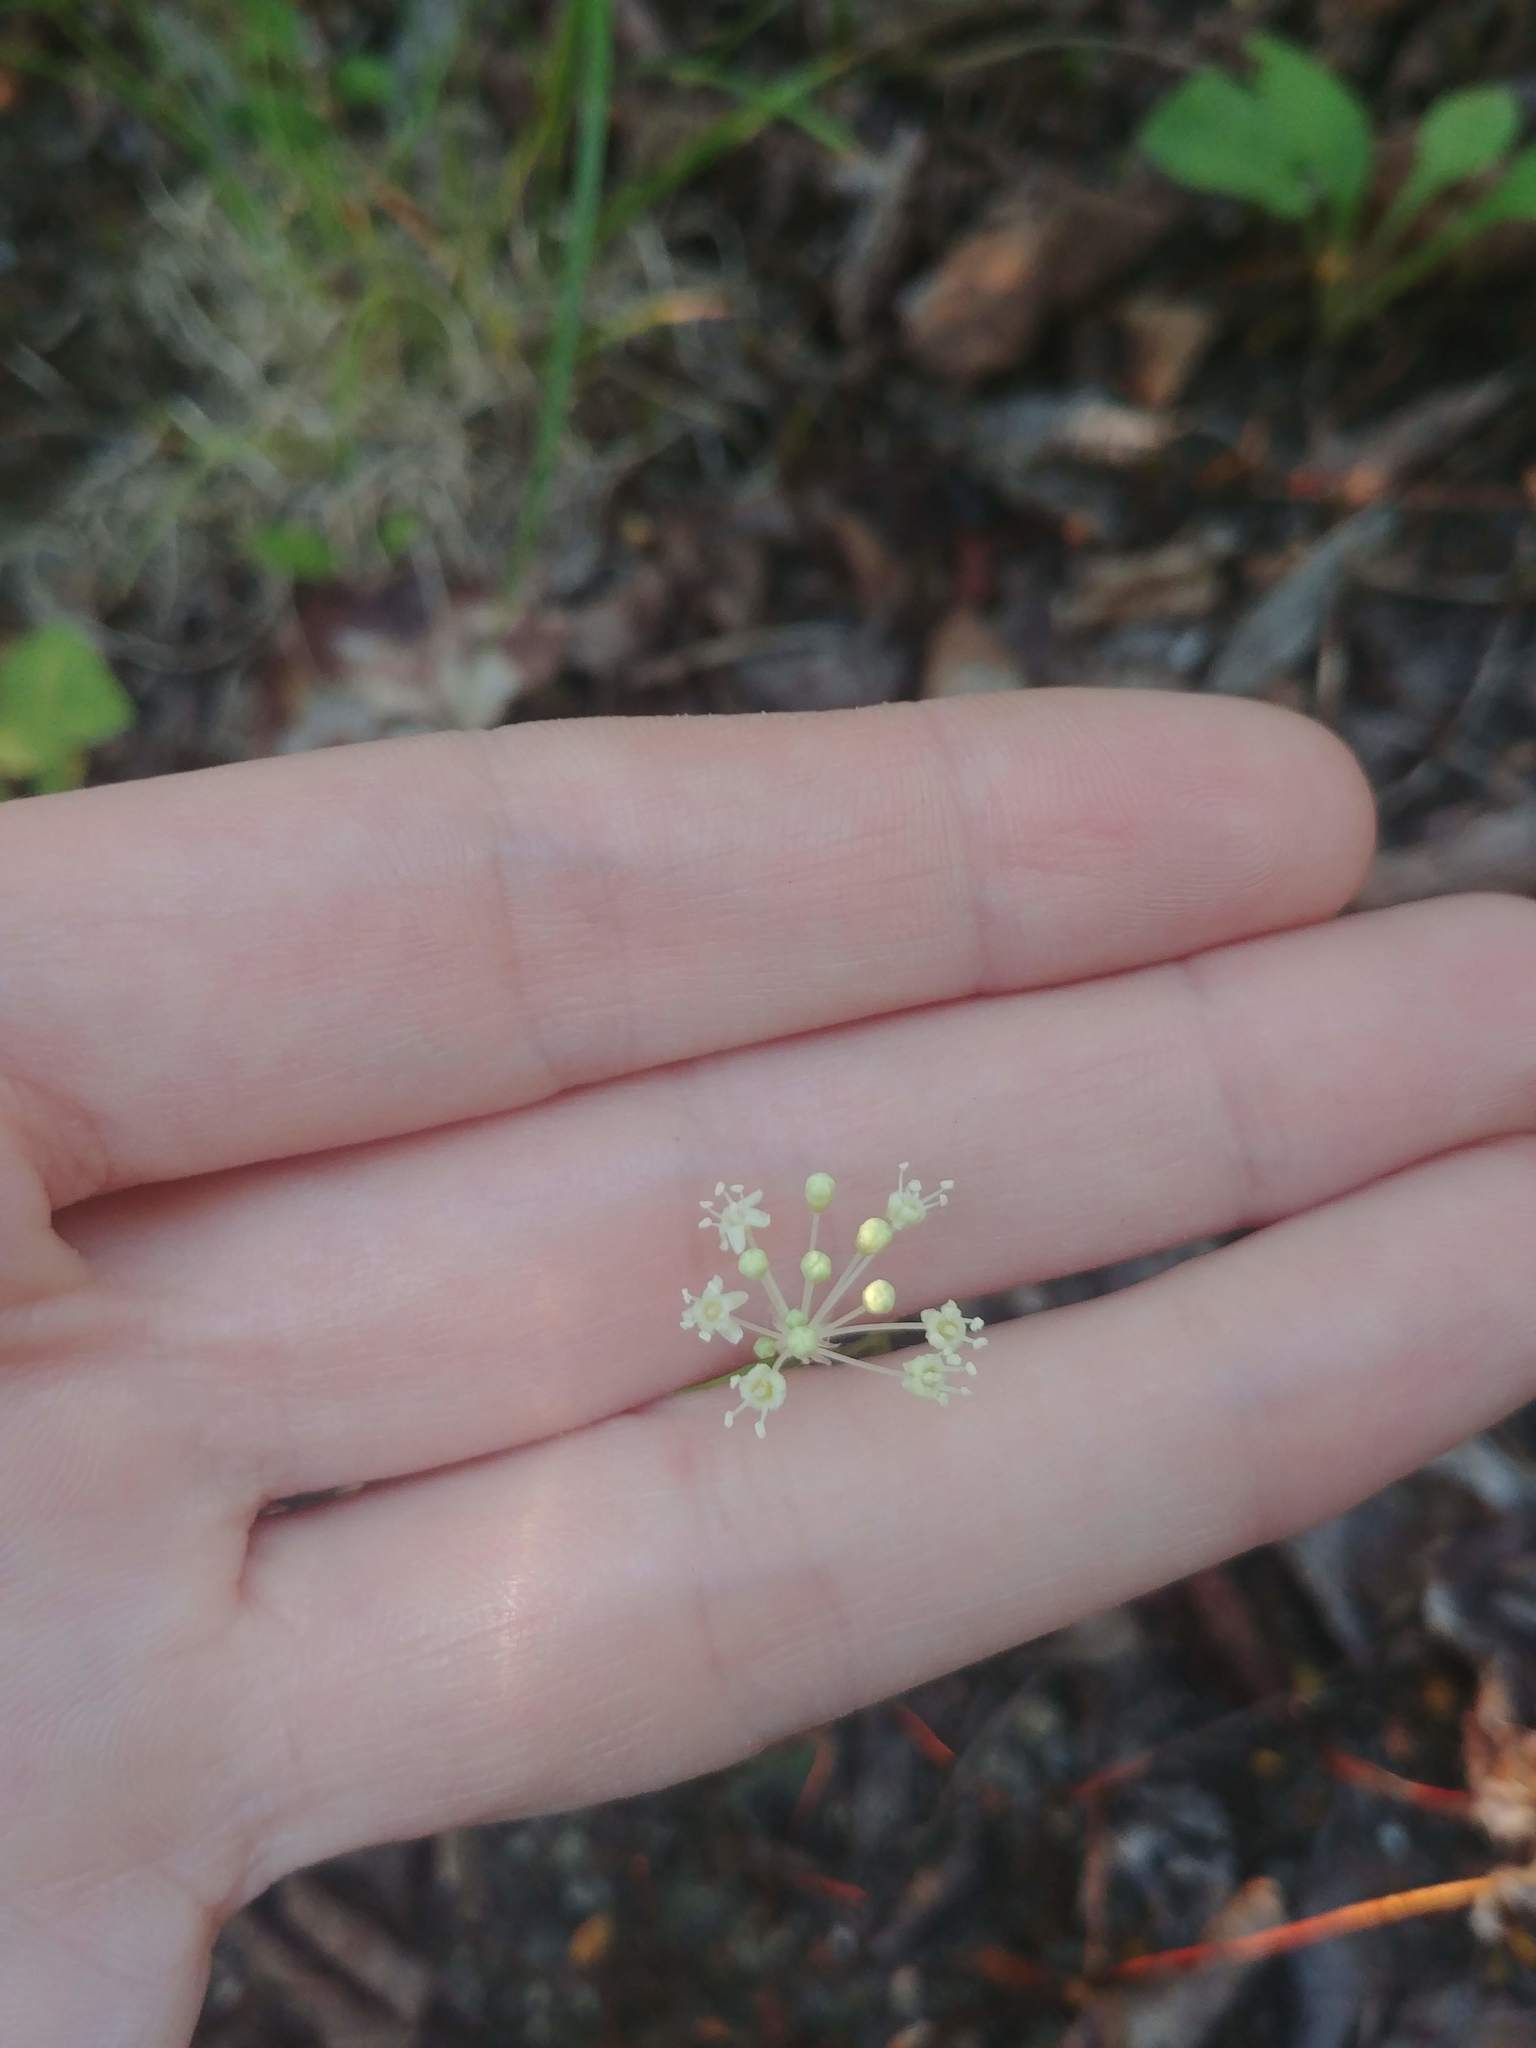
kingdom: Plantae
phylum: Tracheophyta
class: Magnoliopsida
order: Apiales
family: Araliaceae
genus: Aralia
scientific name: Aralia hispida
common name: Bristly sarsaparilla
